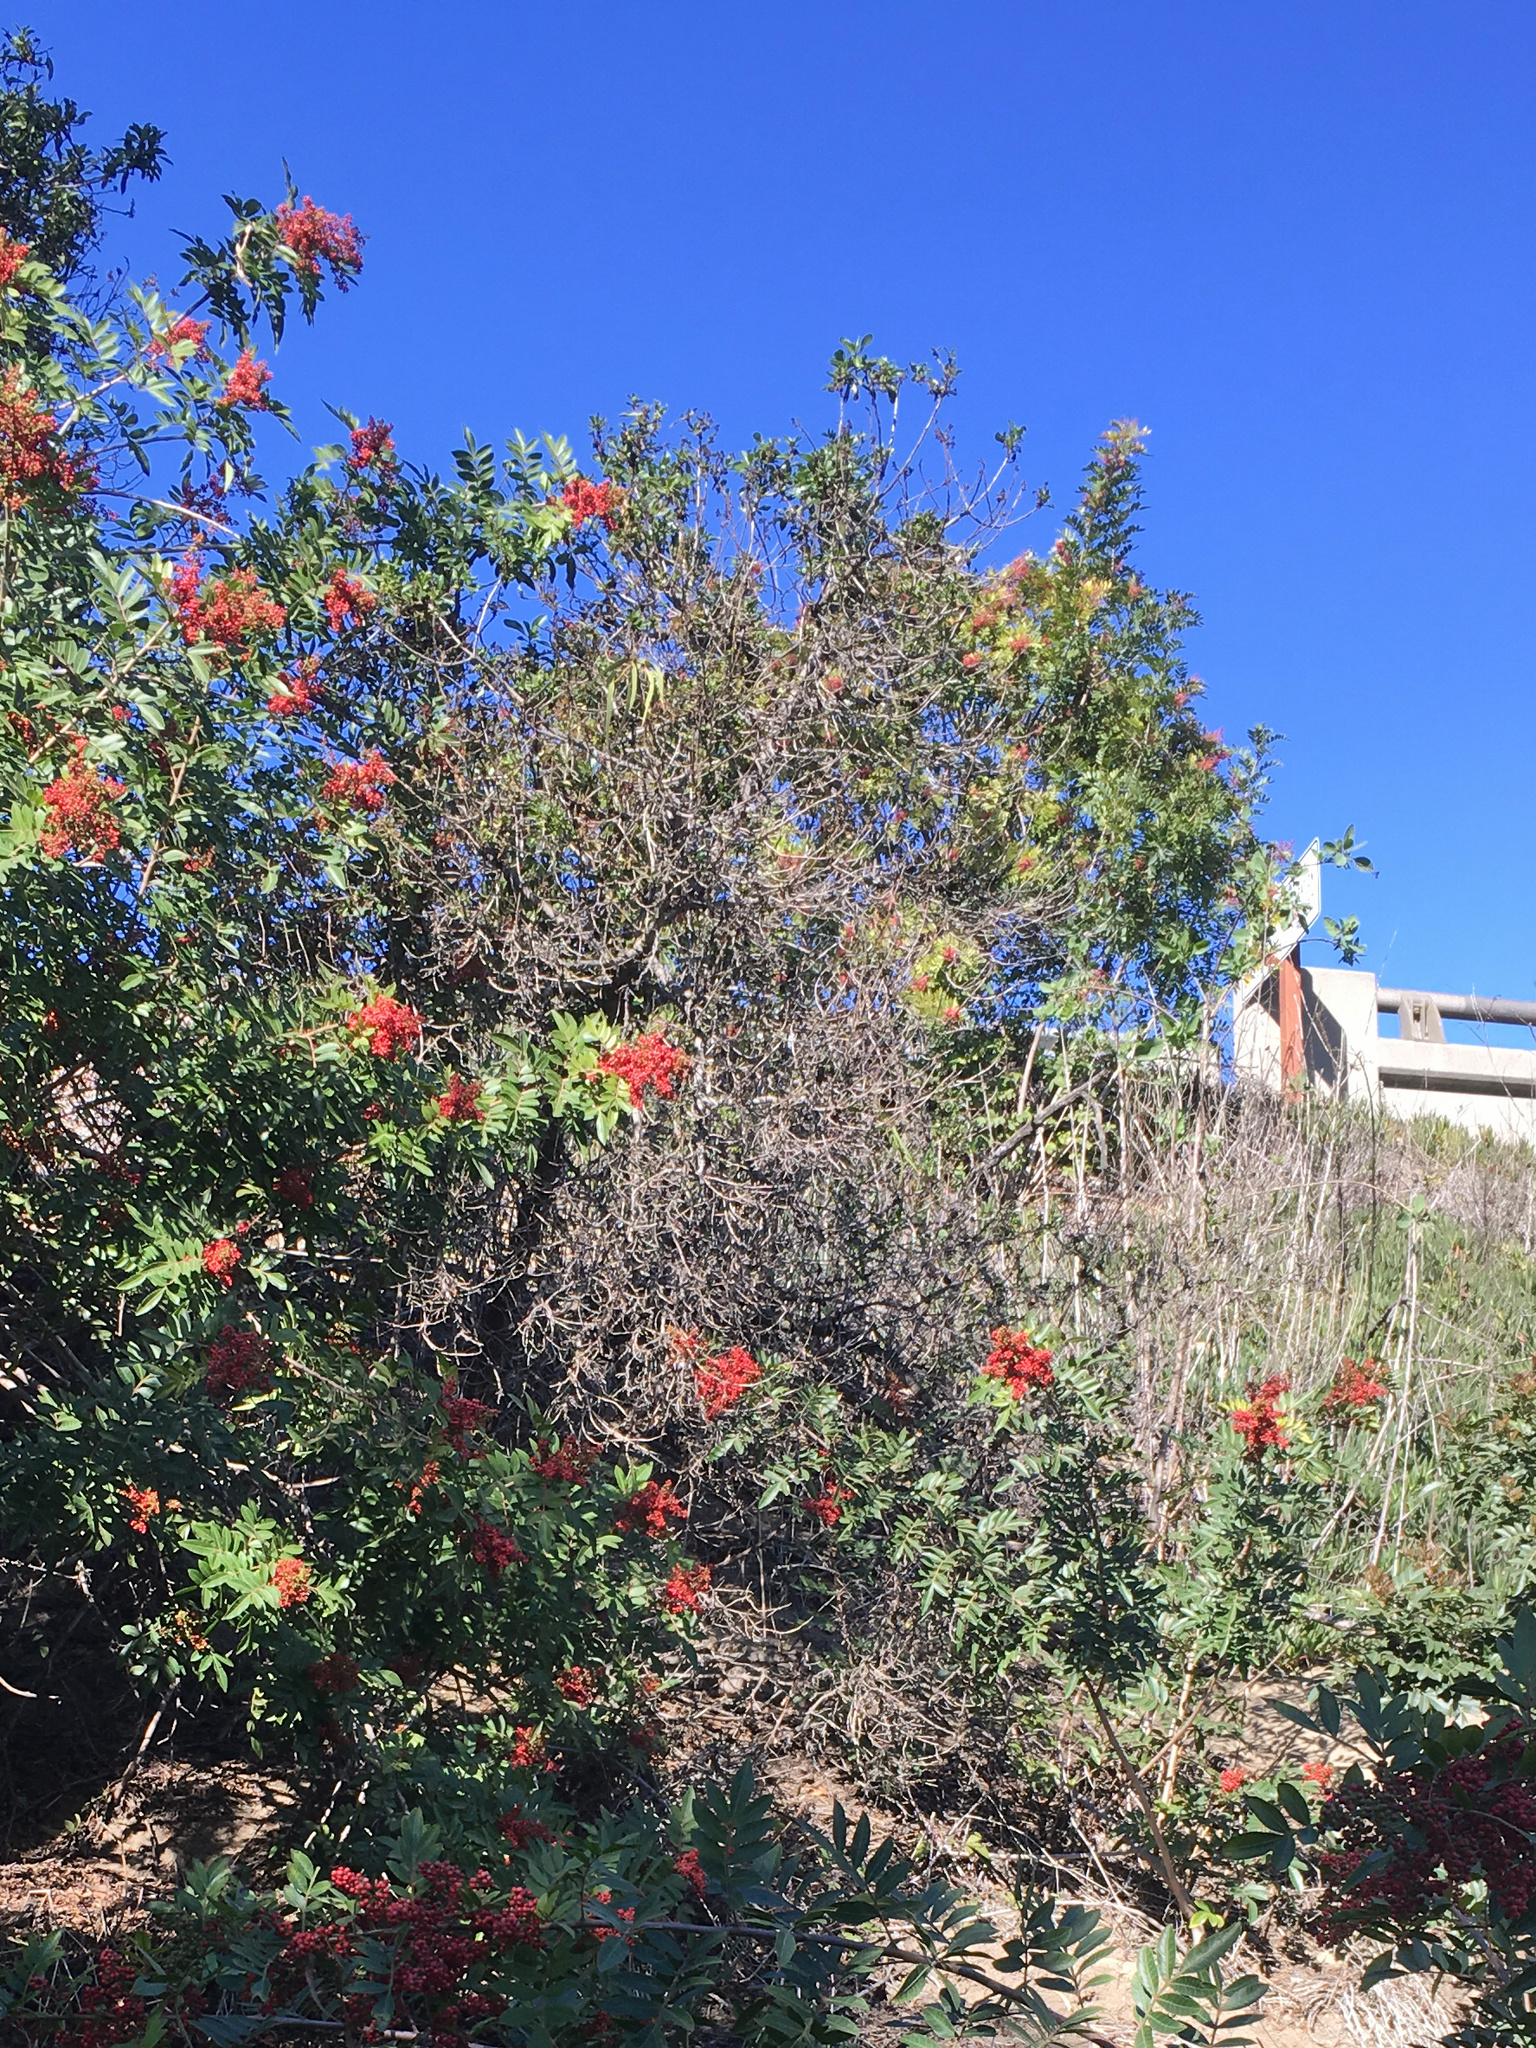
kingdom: Plantae
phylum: Tracheophyta
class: Magnoliopsida
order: Lamiales
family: Scrophulariaceae
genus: Myoporum
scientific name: Myoporum laetum
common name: Ngaio tree
